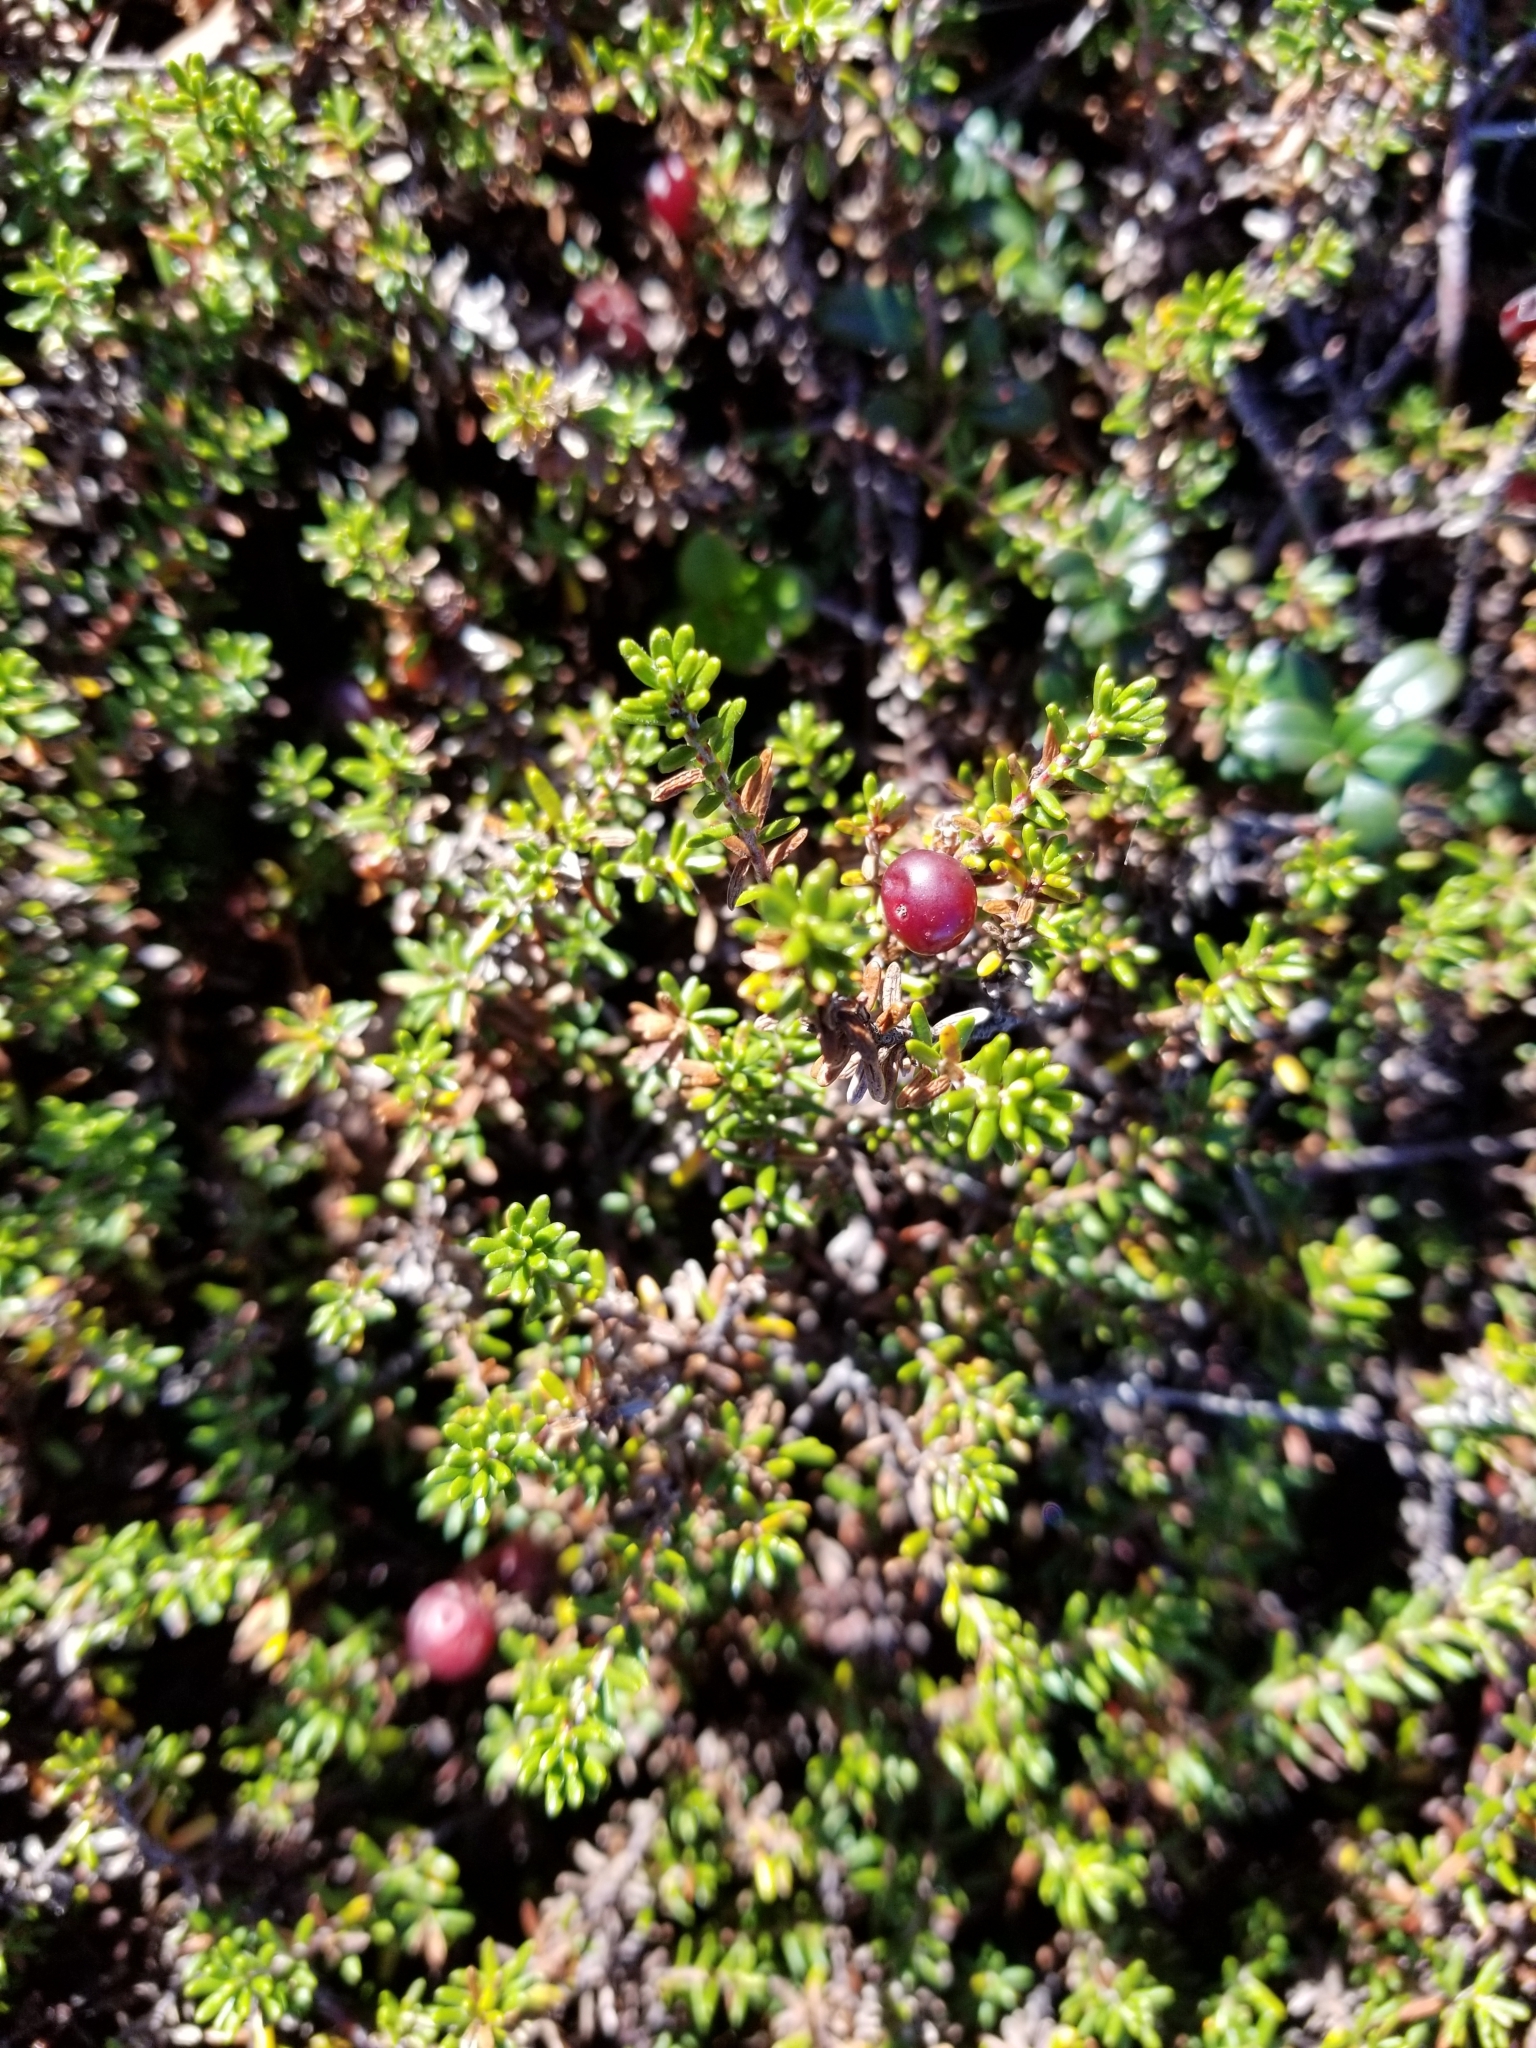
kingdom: Plantae
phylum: Tracheophyta
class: Magnoliopsida
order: Ericales
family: Ericaceae
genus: Empetrum
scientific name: Empetrum nigrum
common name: Black crowberry
